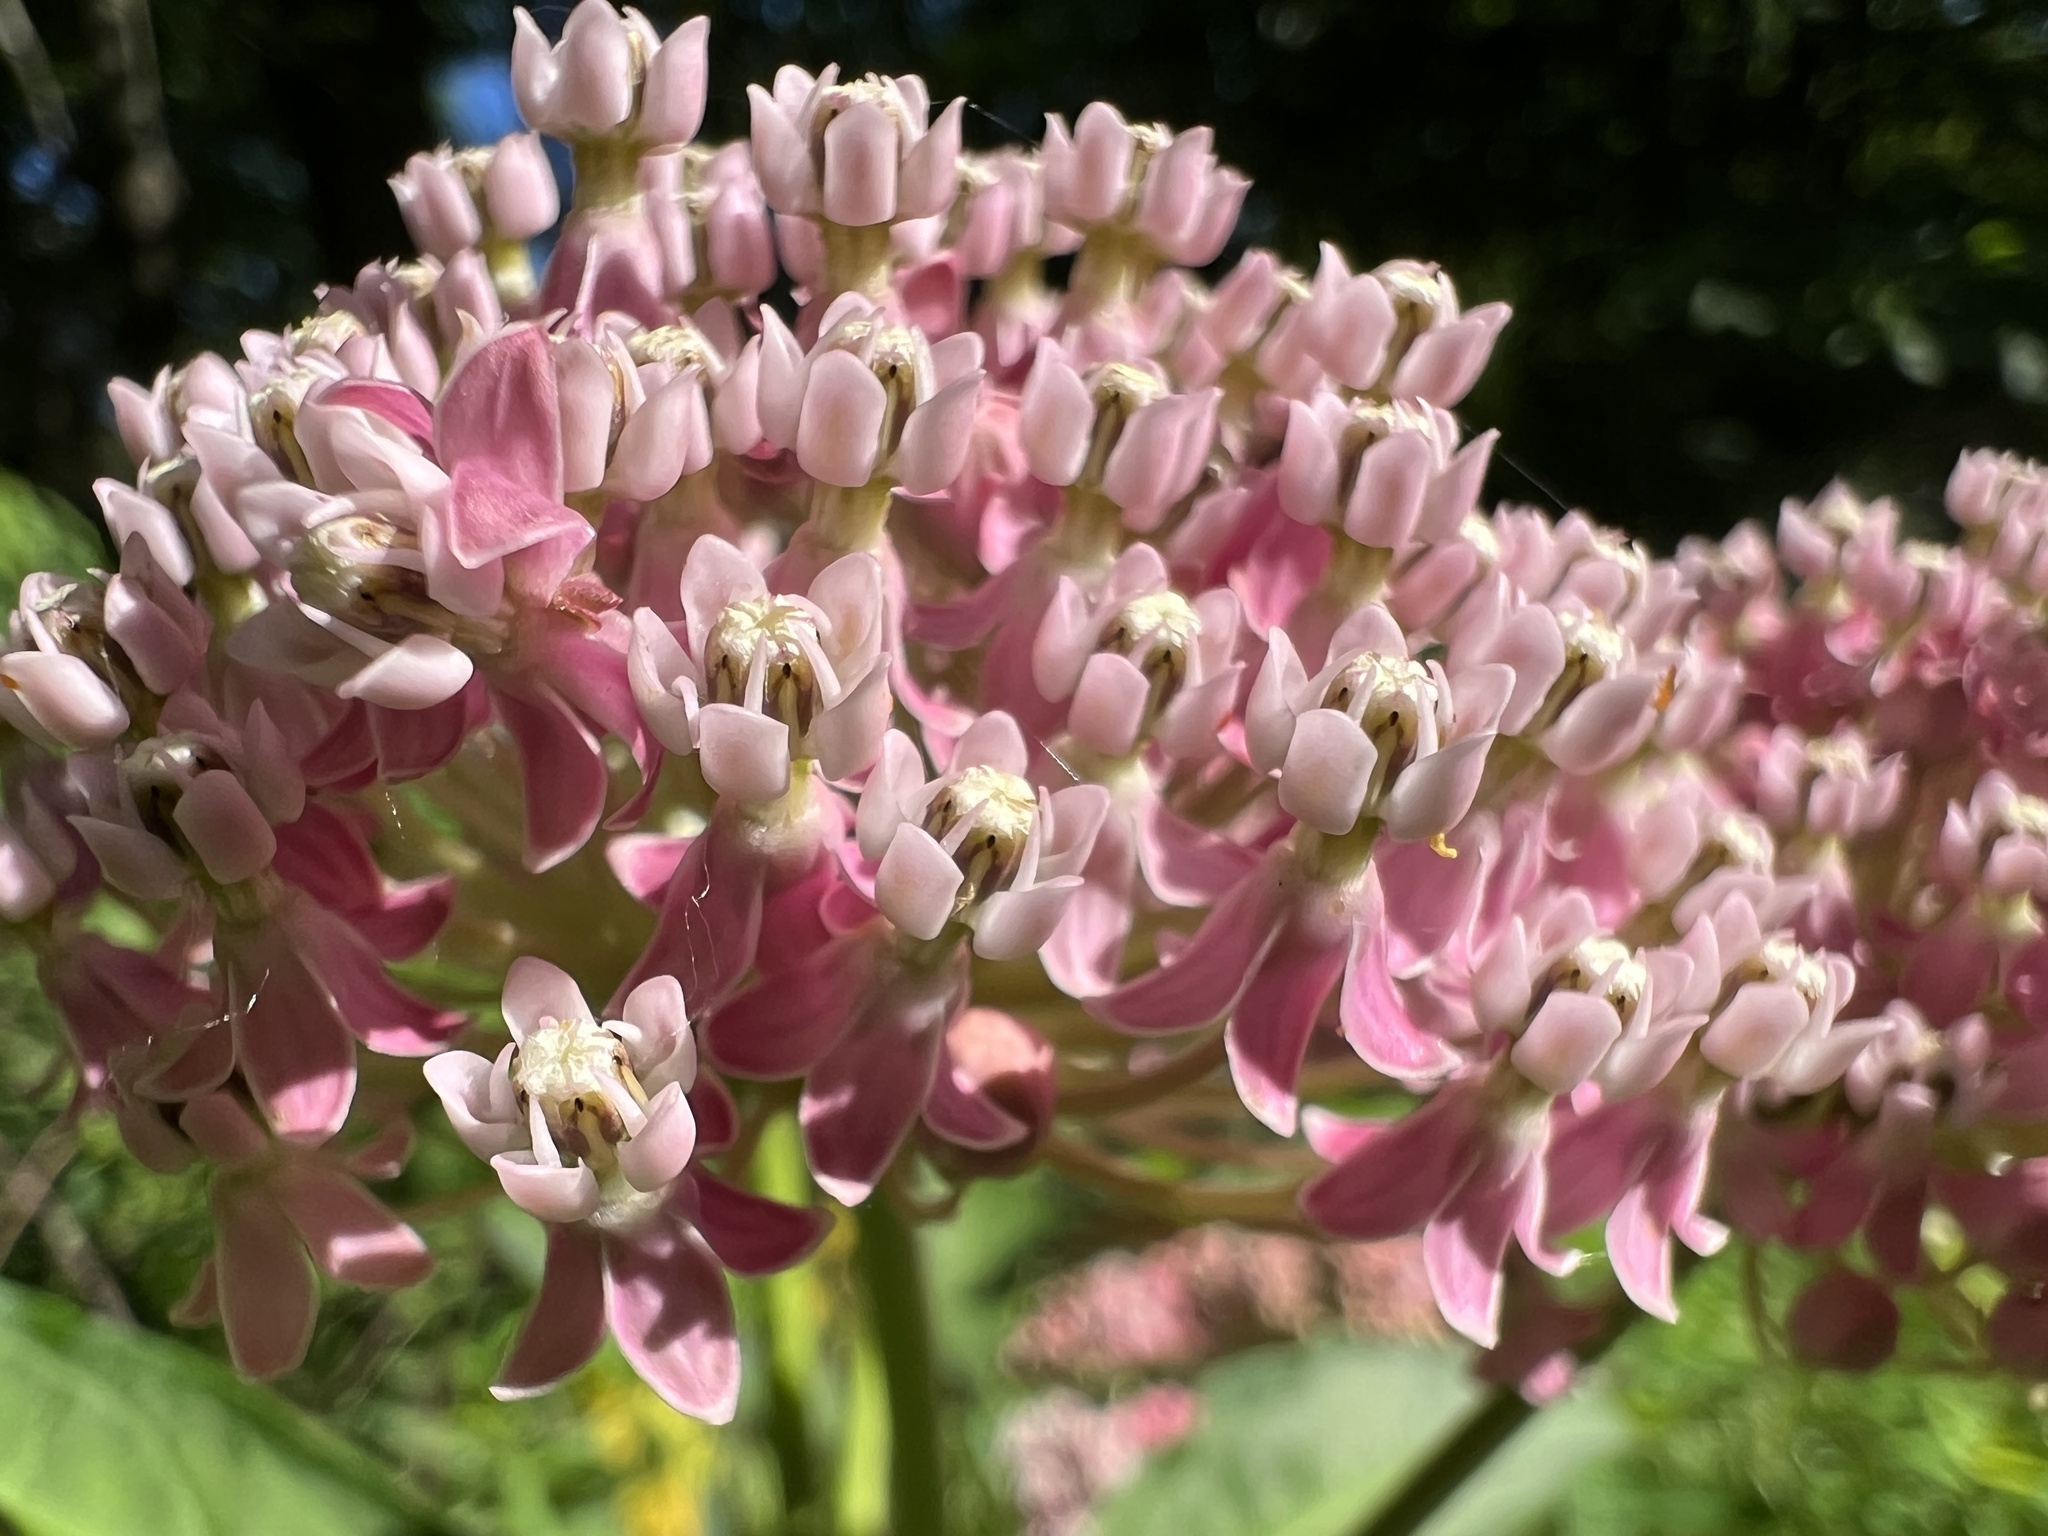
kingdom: Plantae
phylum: Tracheophyta
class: Magnoliopsida
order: Gentianales
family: Apocynaceae
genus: Asclepias
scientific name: Asclepias incarnata
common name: Swamp milkweed
